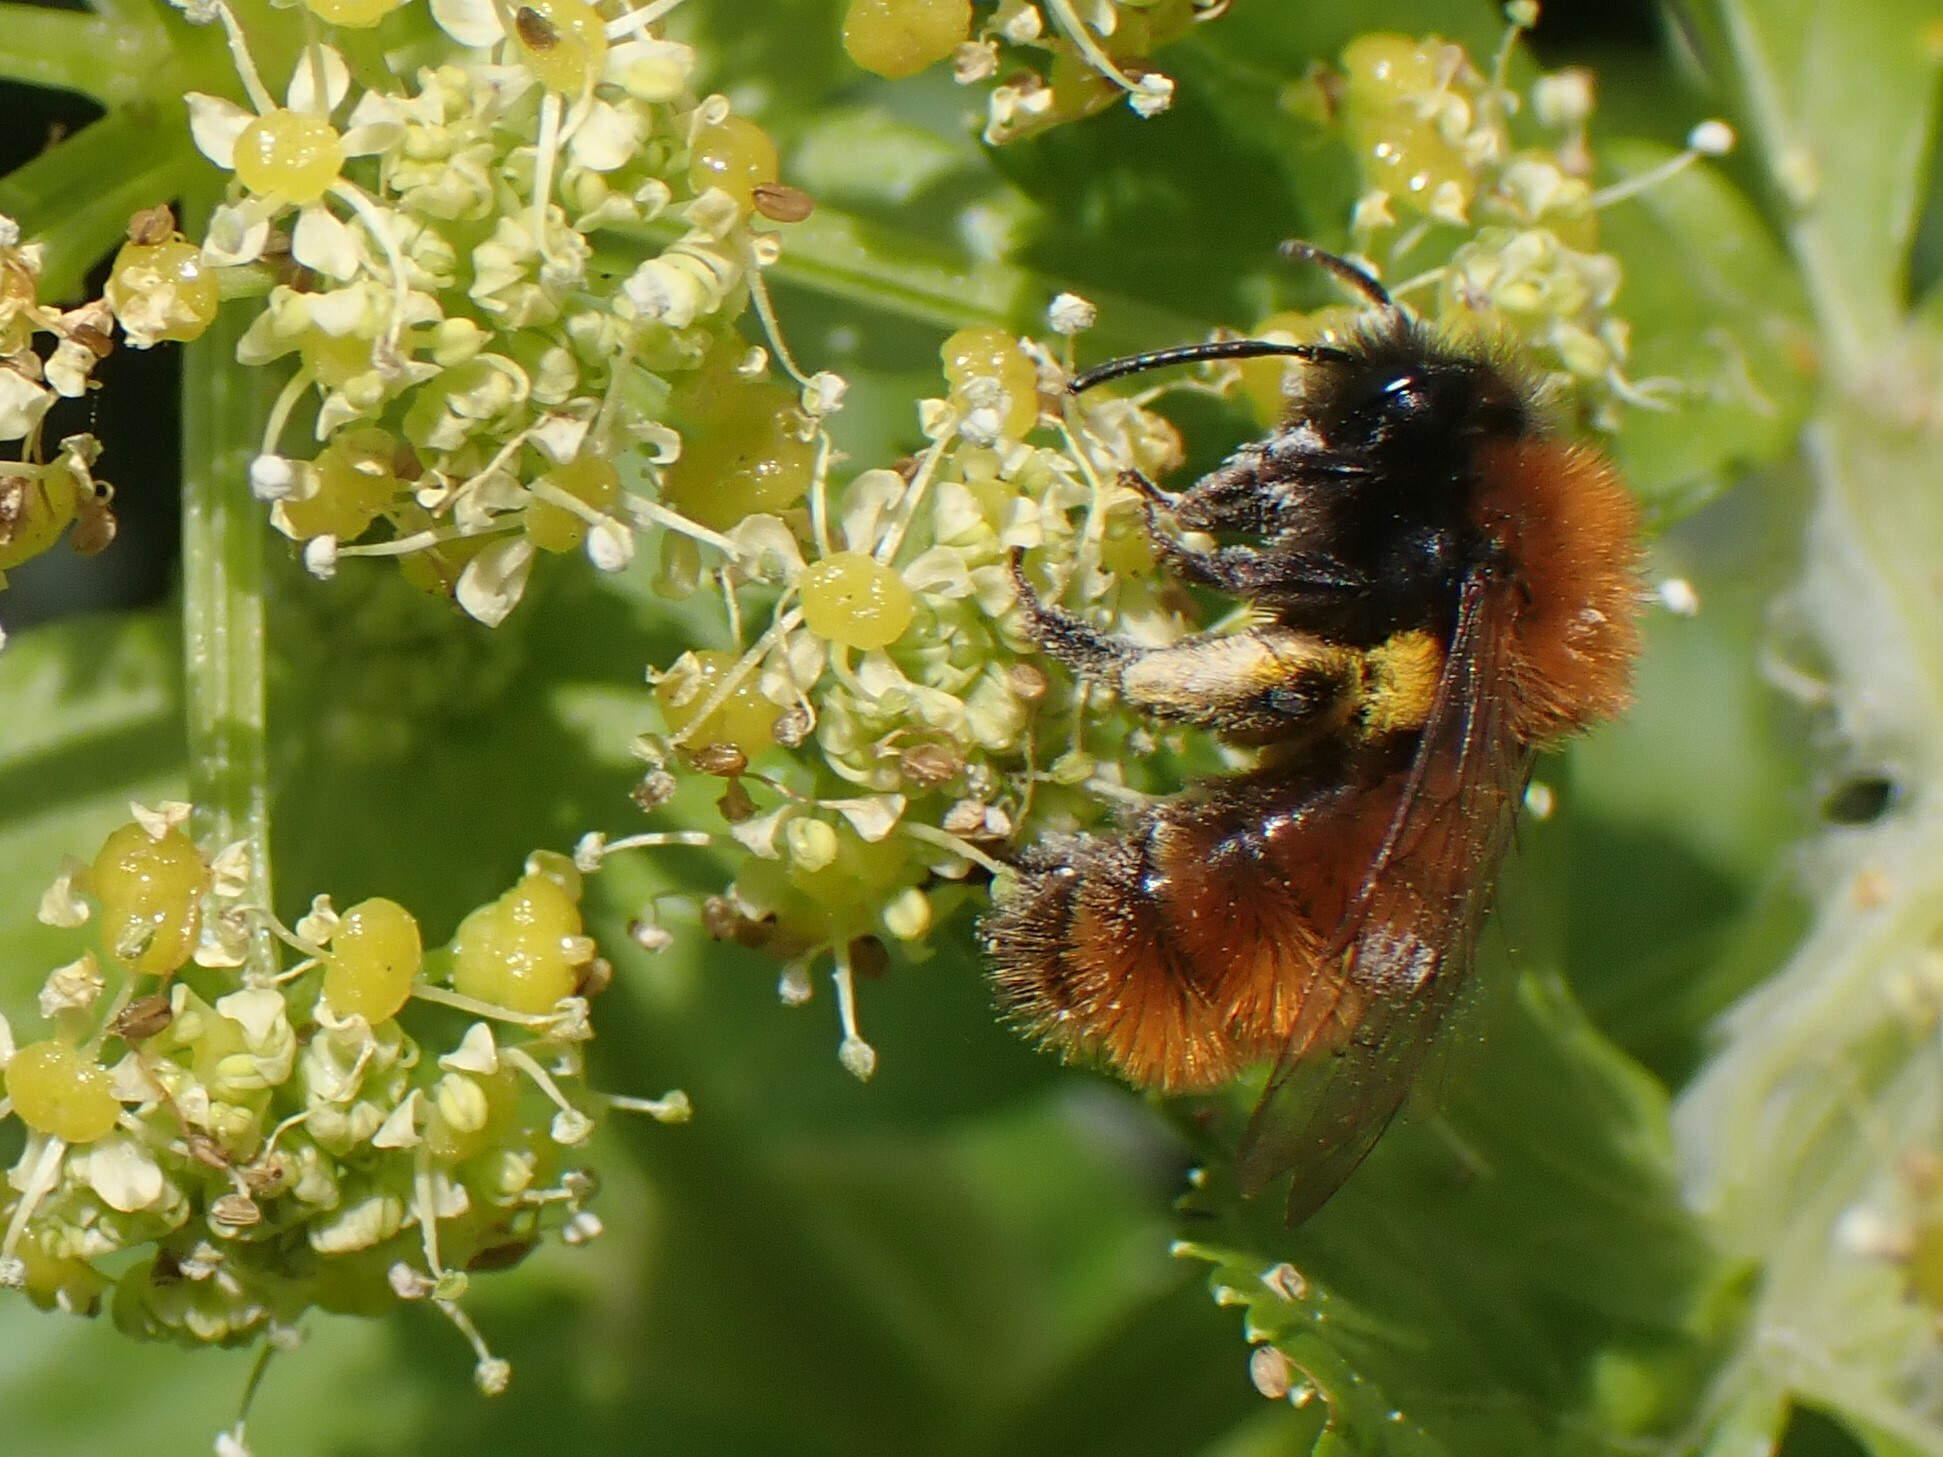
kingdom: Animalia
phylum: Arthropoda
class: Insecta
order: Hymenoptera
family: Andrenidae
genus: Andrena
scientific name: Andrena fulva
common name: Tawny mining bee
